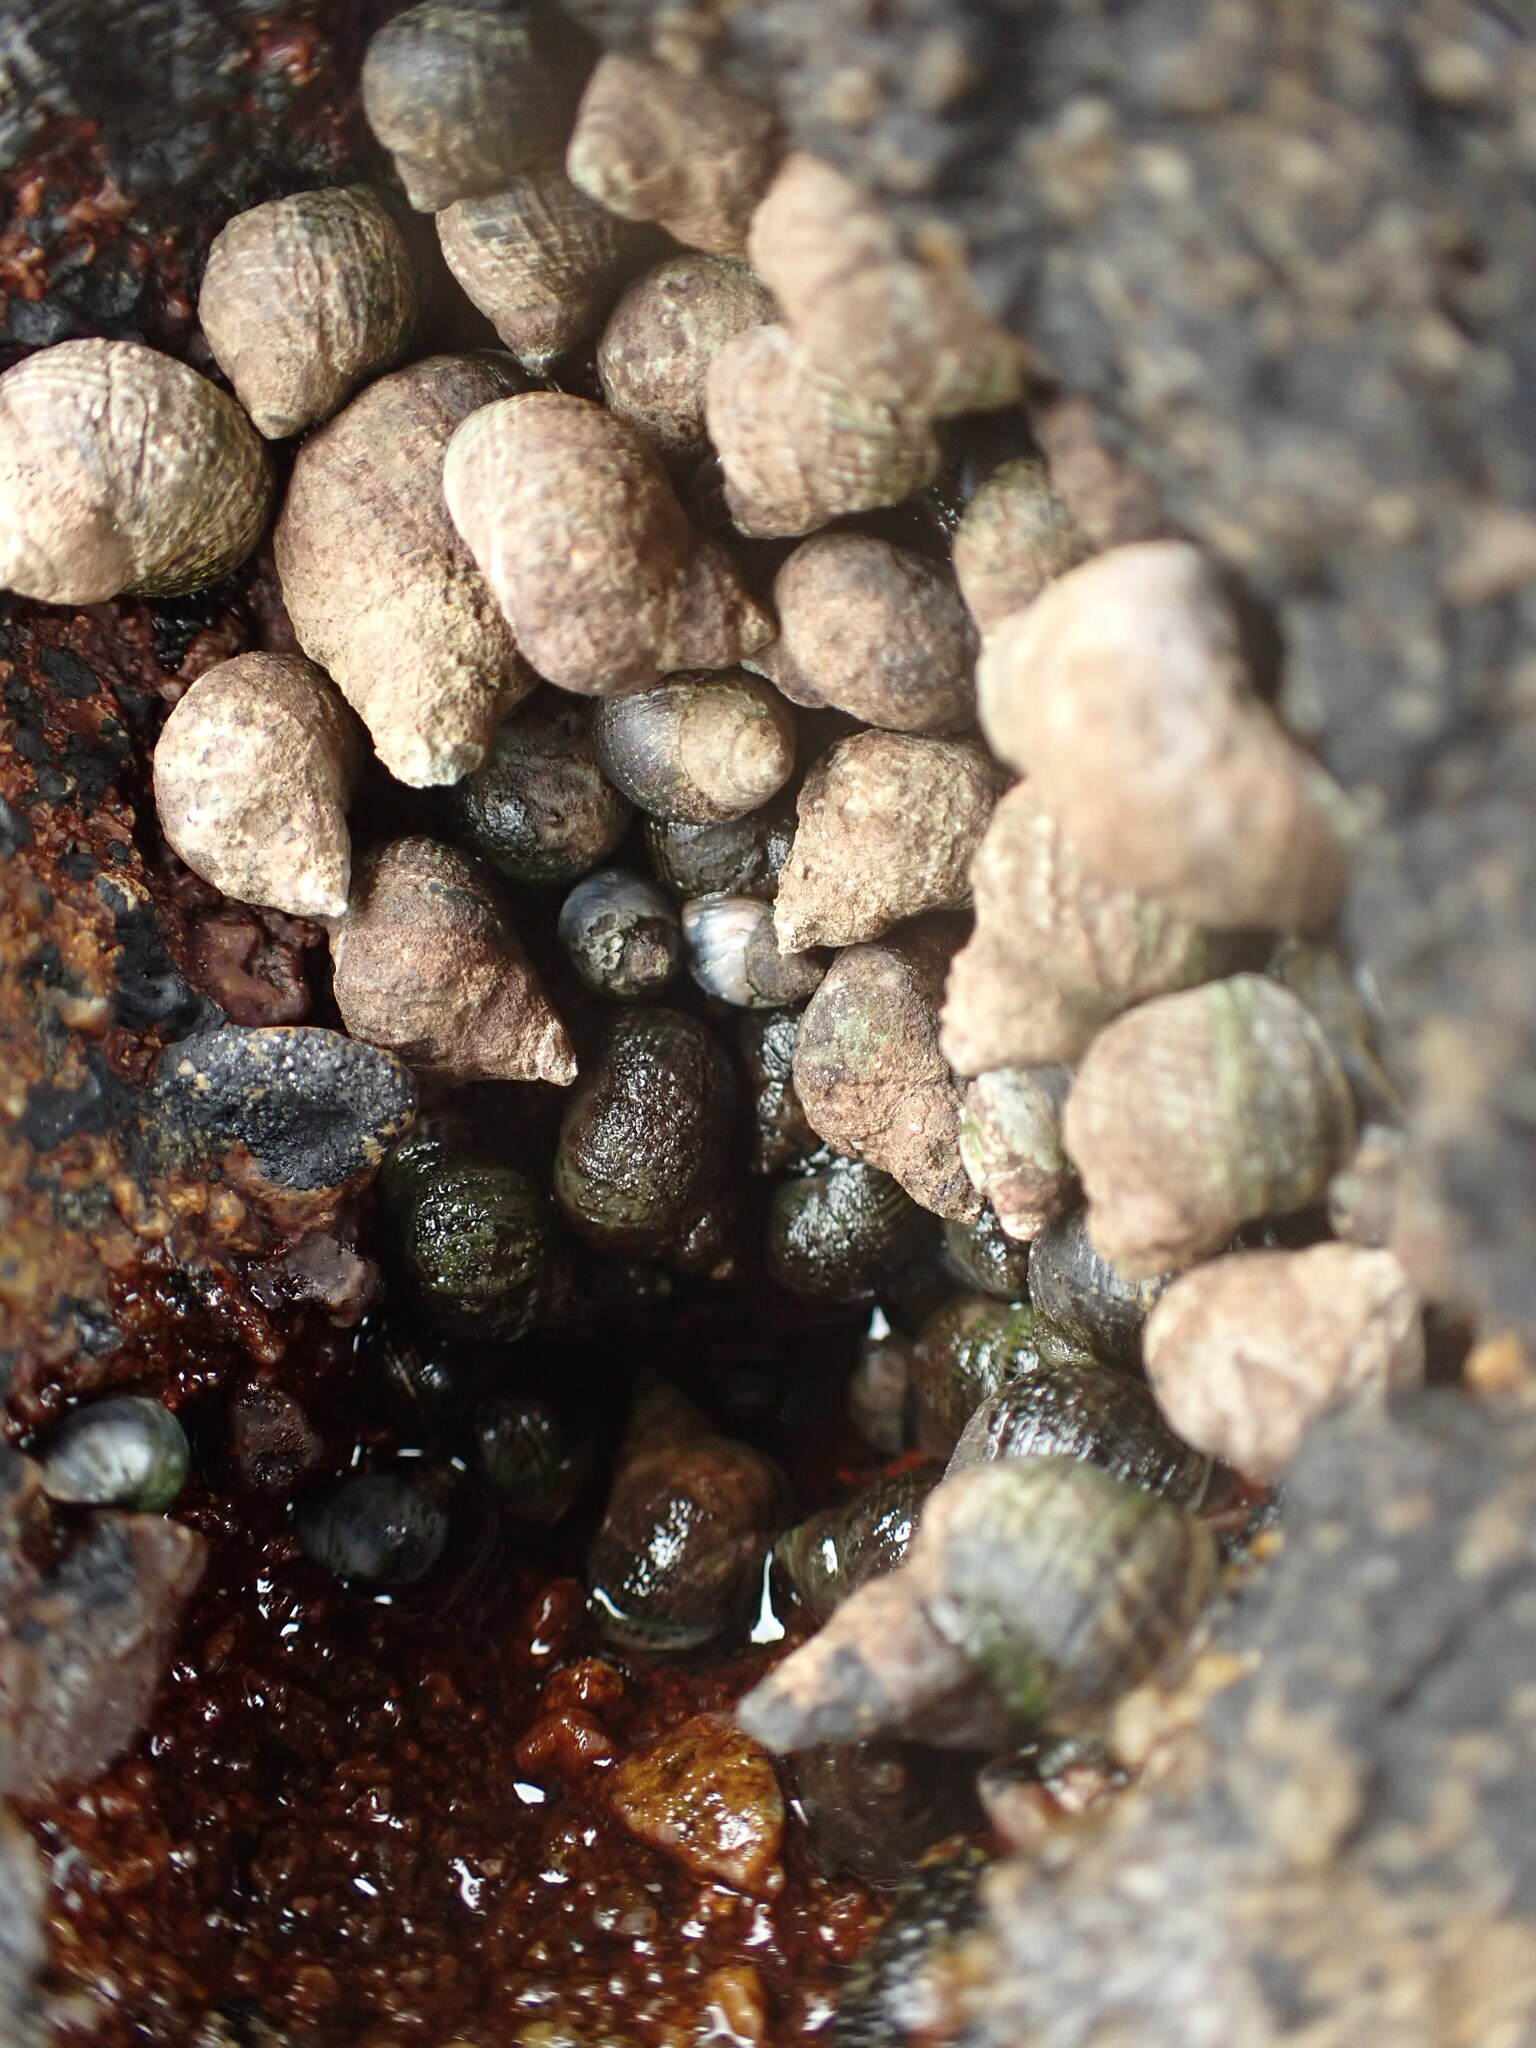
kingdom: Animalia
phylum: Mollusca
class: Gastropoda
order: Littorinimorpha
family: Littorinidae
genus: Austrolittorina
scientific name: Austrolittorina cincta
